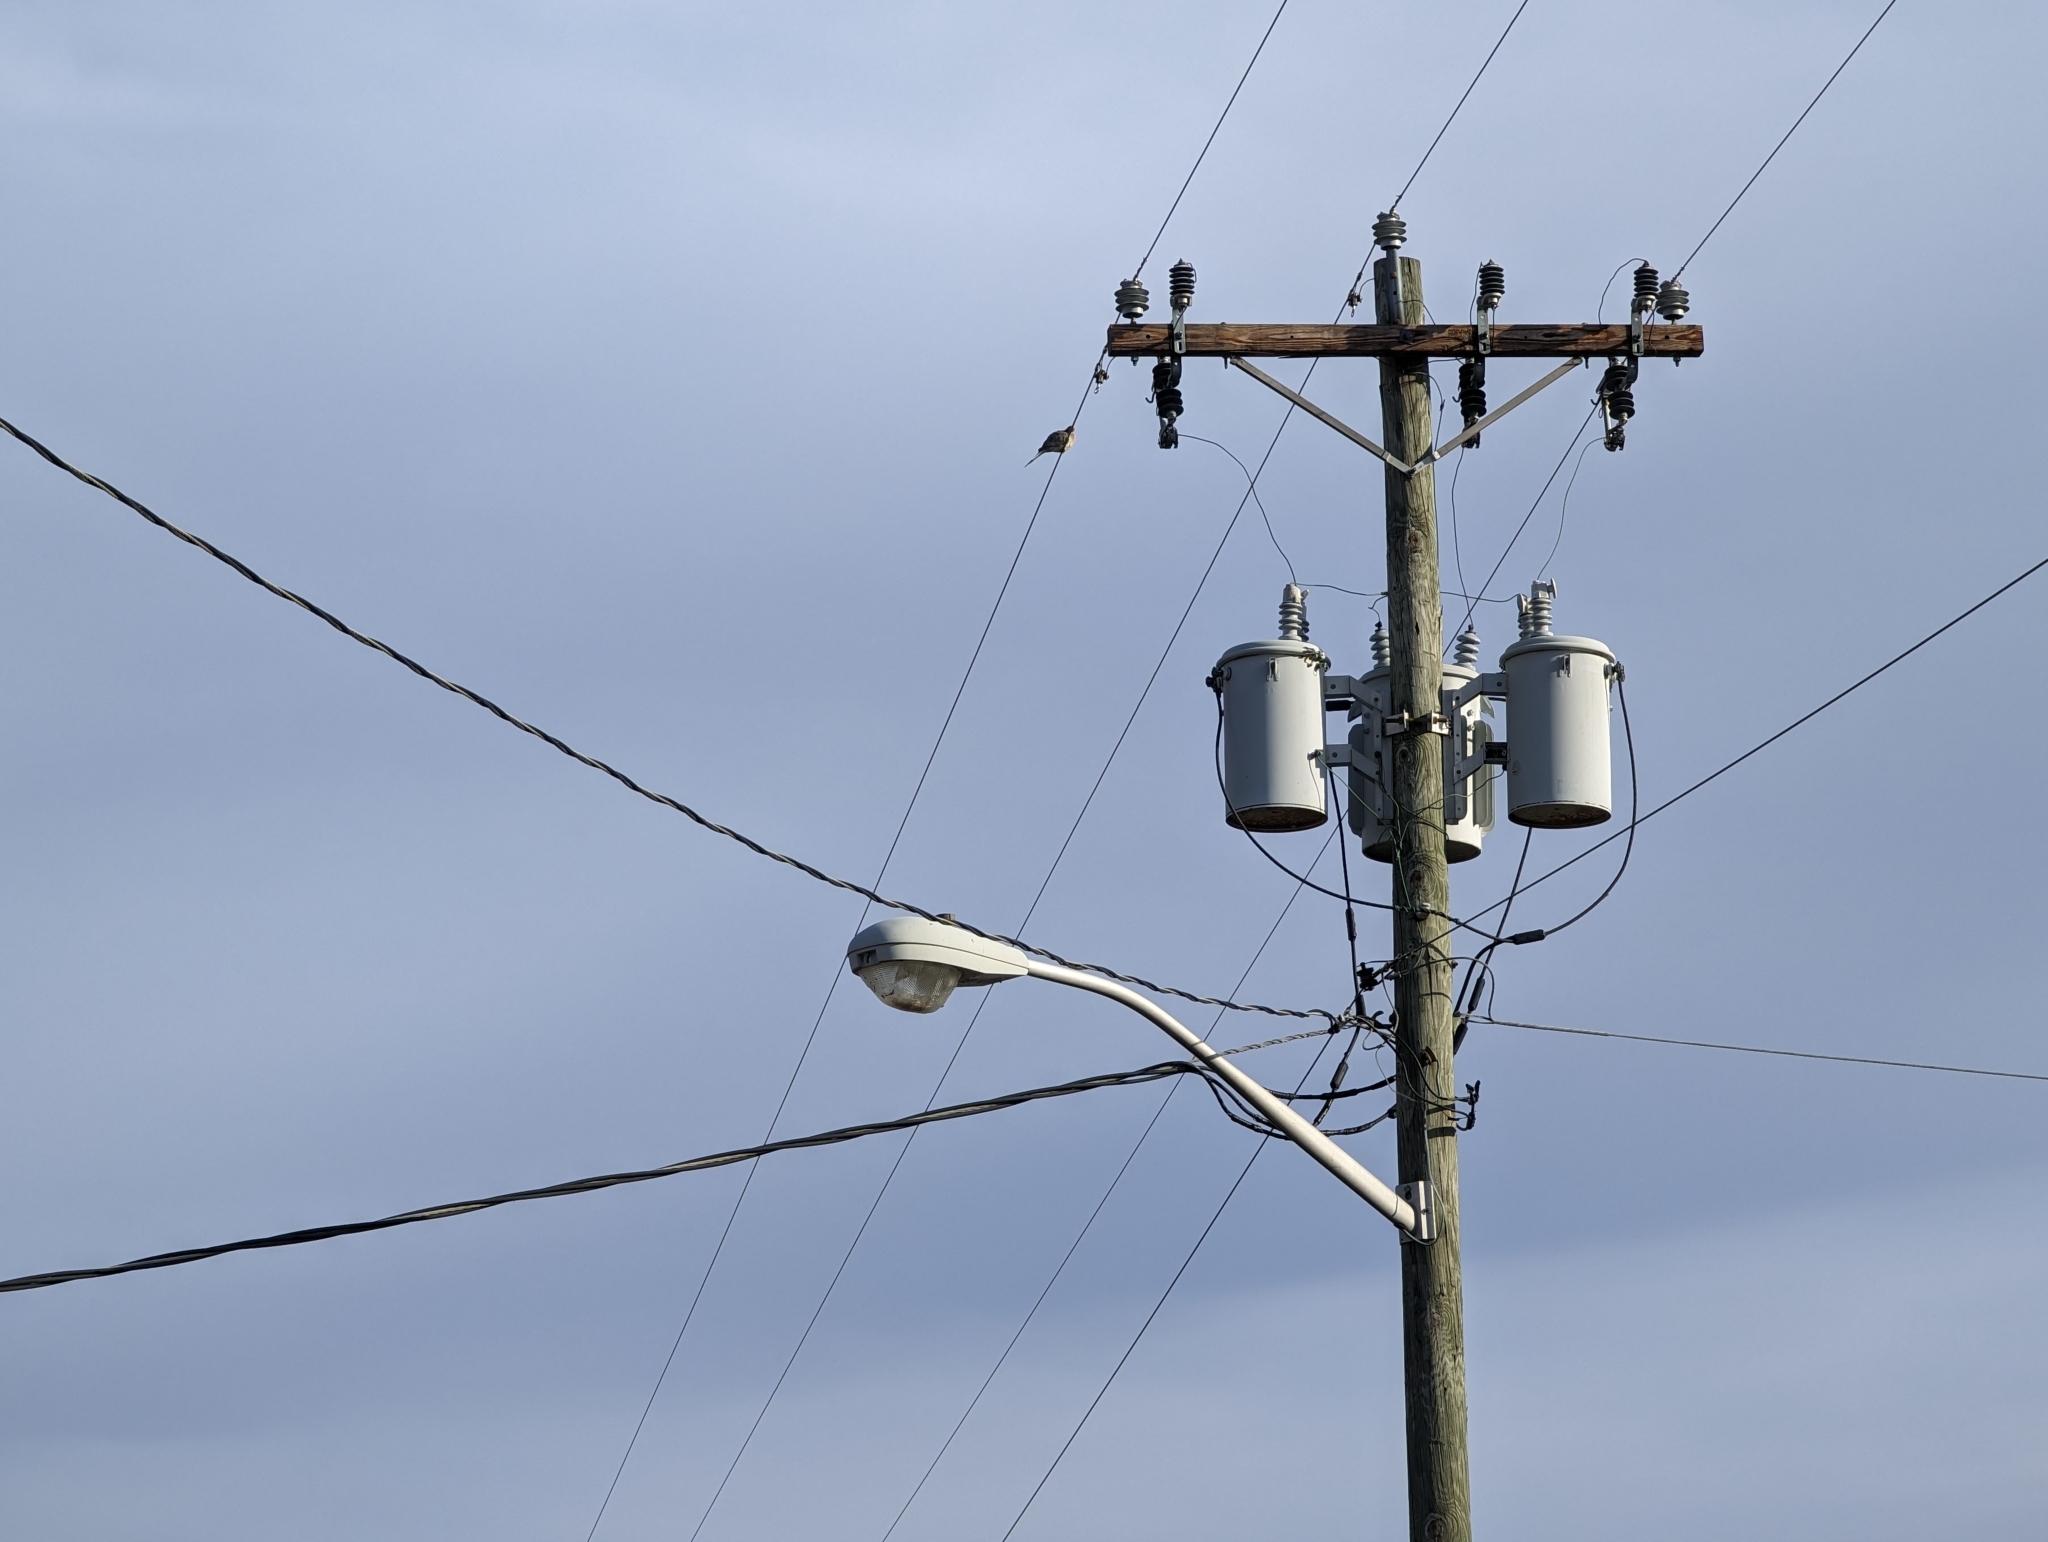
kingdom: Animalia
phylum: Chordata
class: Aves
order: Columbiformes
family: Columbidae
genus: Zenaida
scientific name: Zenaida macroura
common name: Mourning dove
